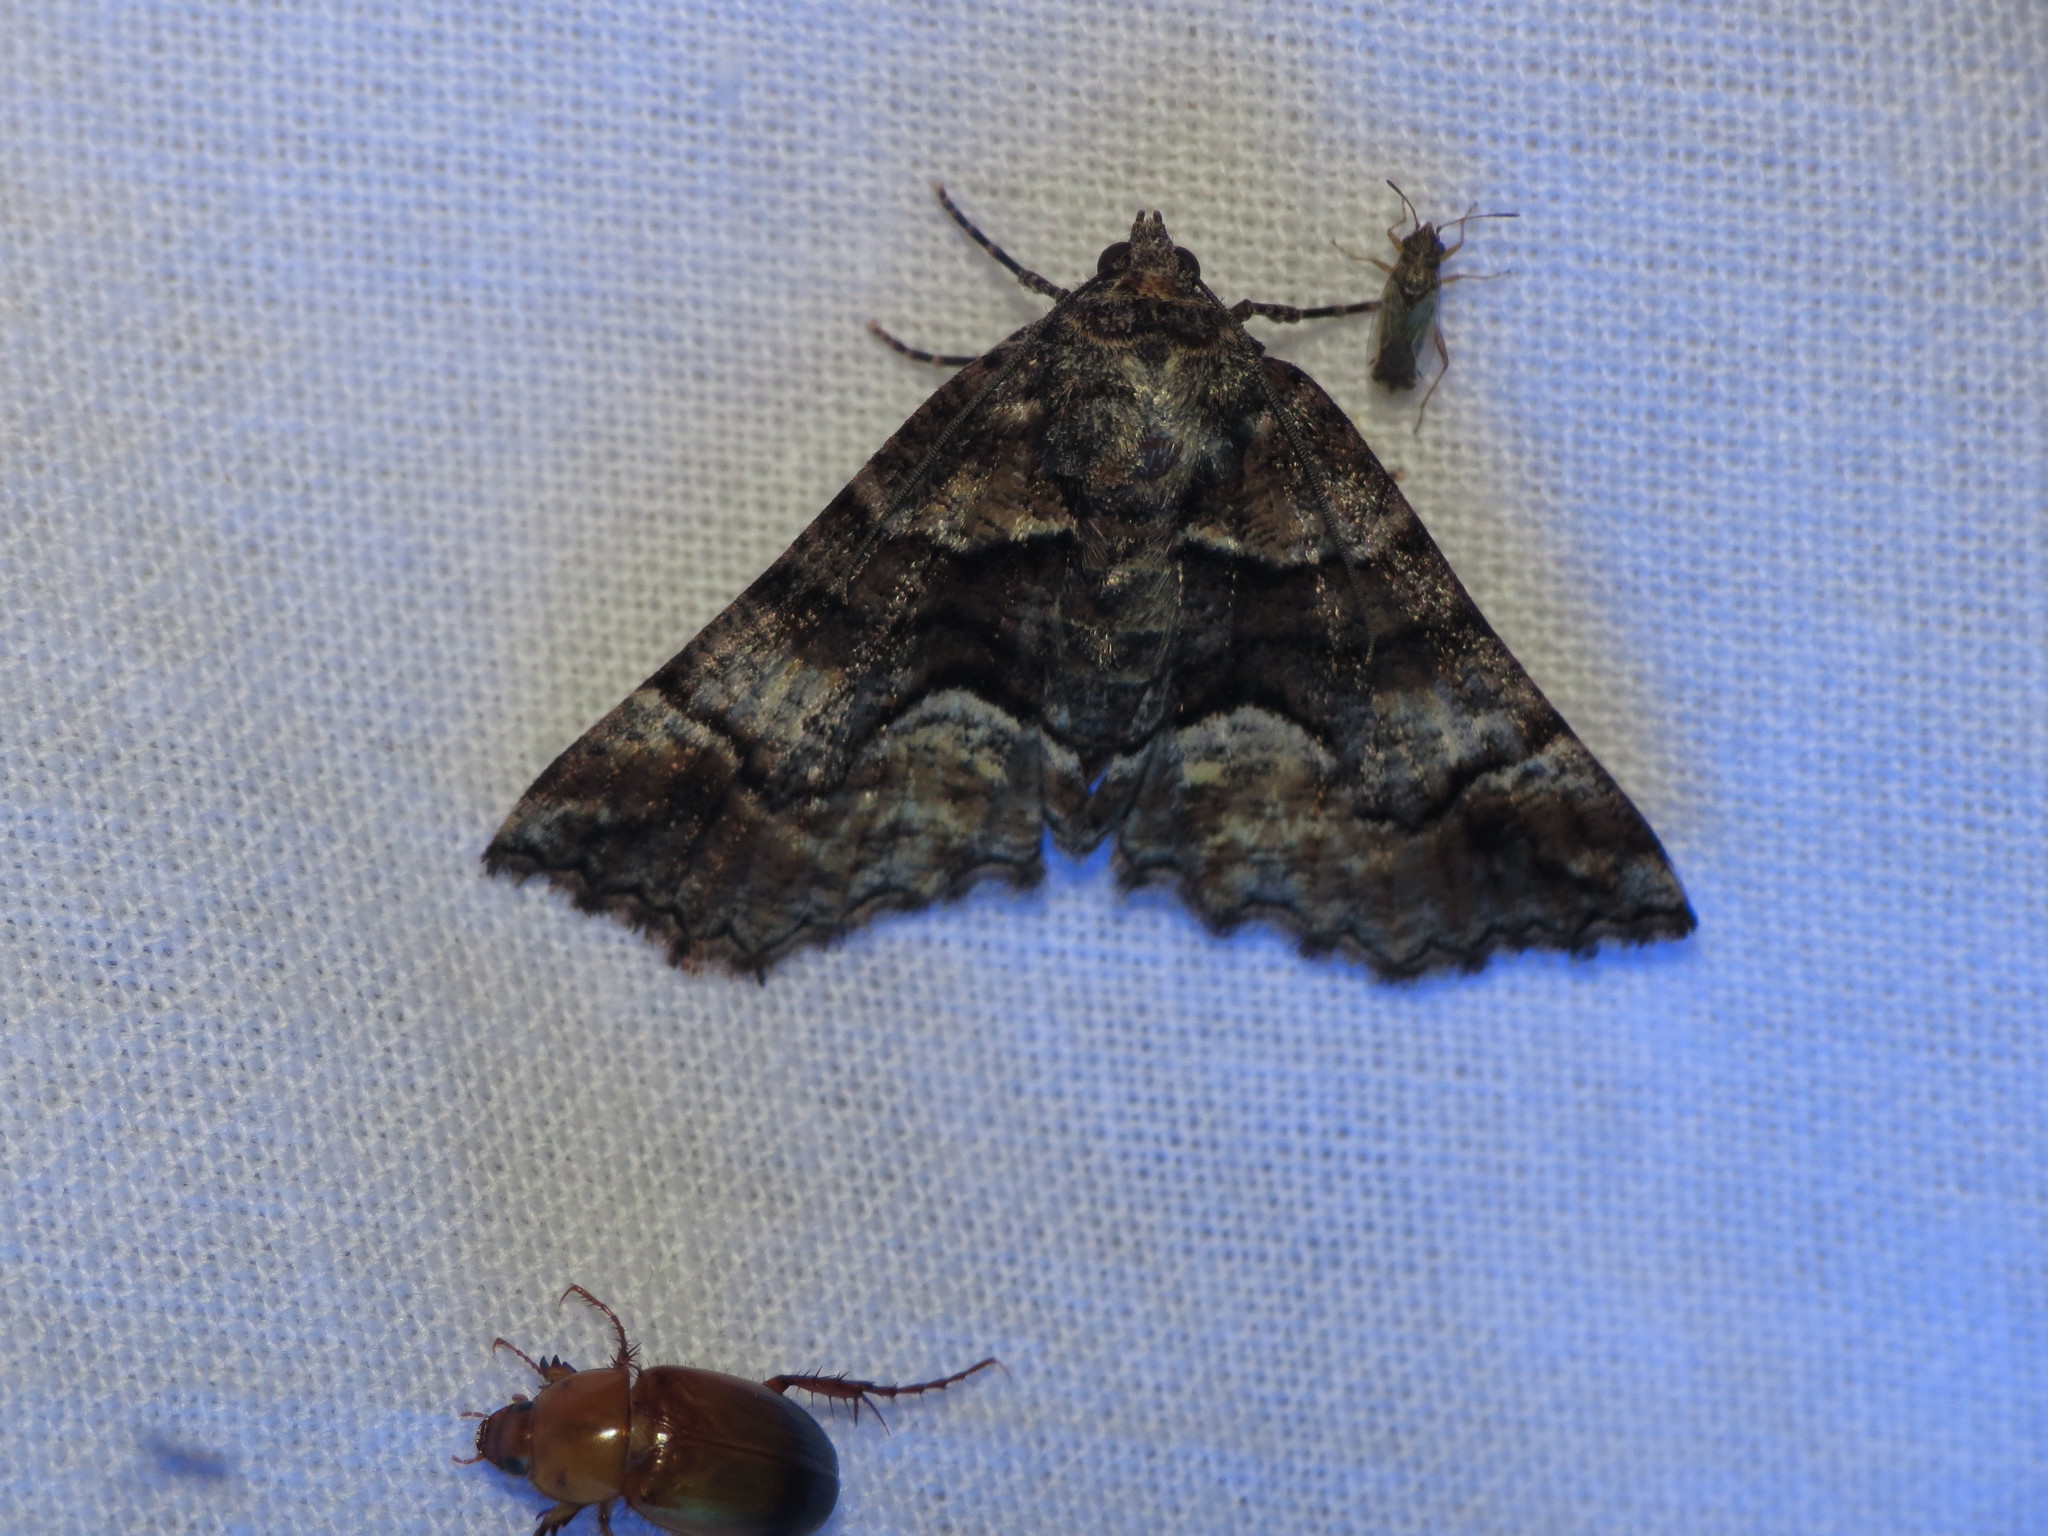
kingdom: Animalia
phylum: Arthropoda
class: Insecta
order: Lepidoptera
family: Geometridae
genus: Gastrina
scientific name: Gastrina cristaria
